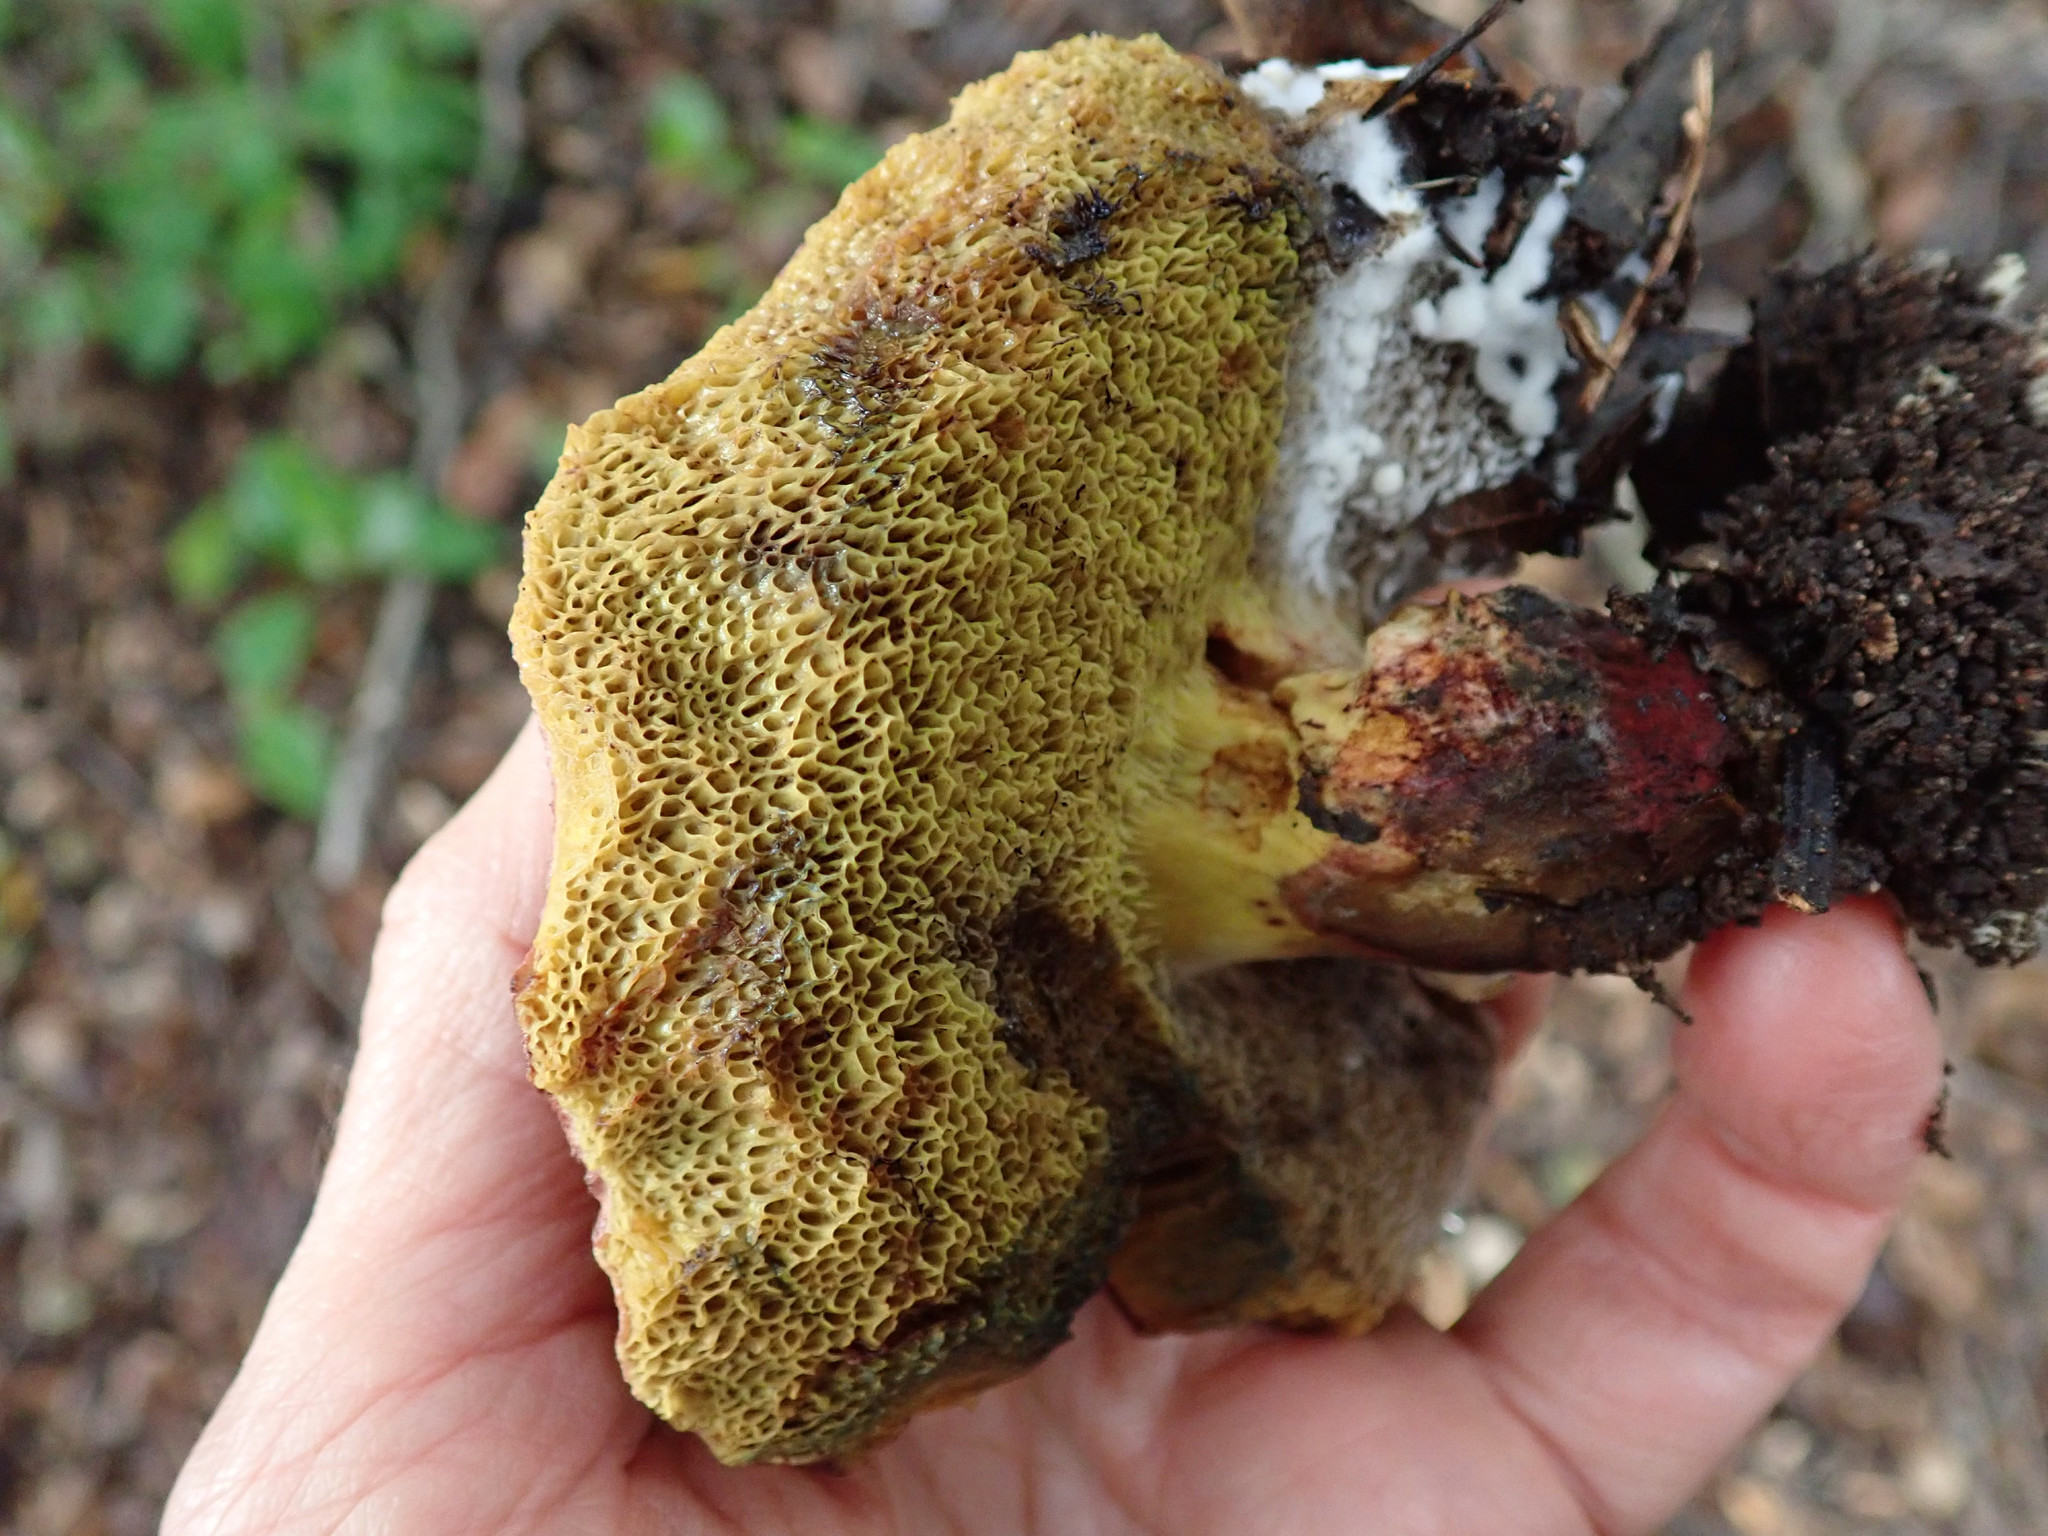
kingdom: Fungi
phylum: Basidiomycota
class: Agaricomycetes
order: Boletales
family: Boletaceae
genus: Xerocomellus
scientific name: Xerocomellus dryophilus
